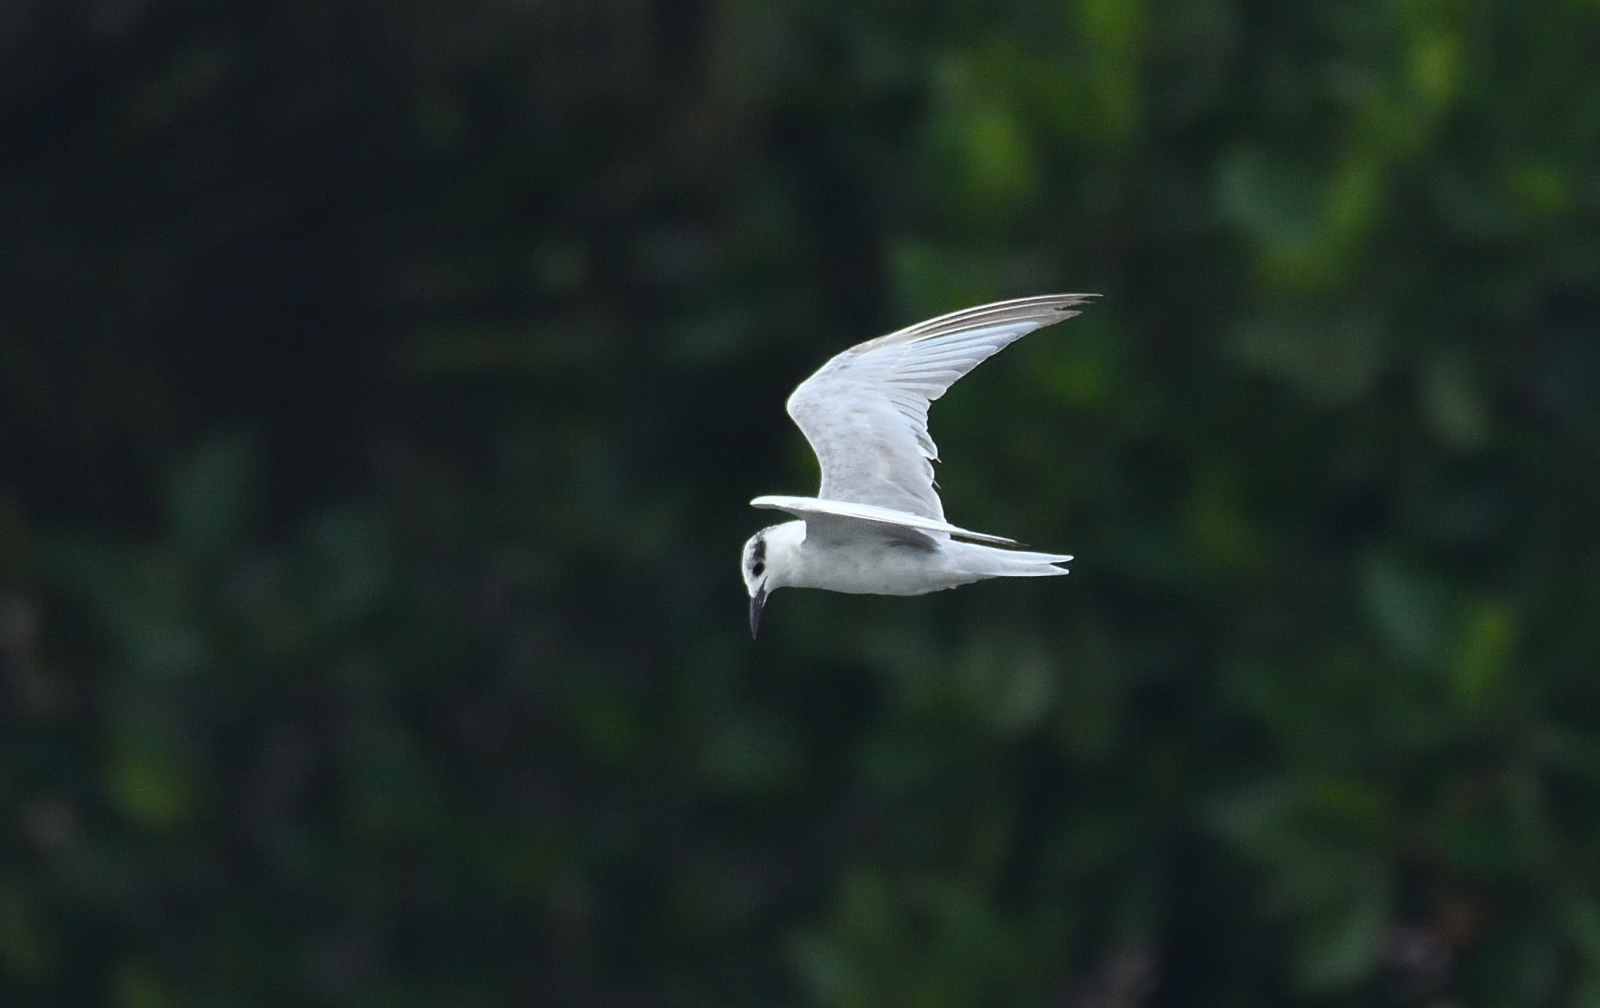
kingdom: Animalia
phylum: Chordata
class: Aves
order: Charadriiformes
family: Laridae
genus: Chlidonias
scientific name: Chlidonias hybrida
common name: Whiskered tern
